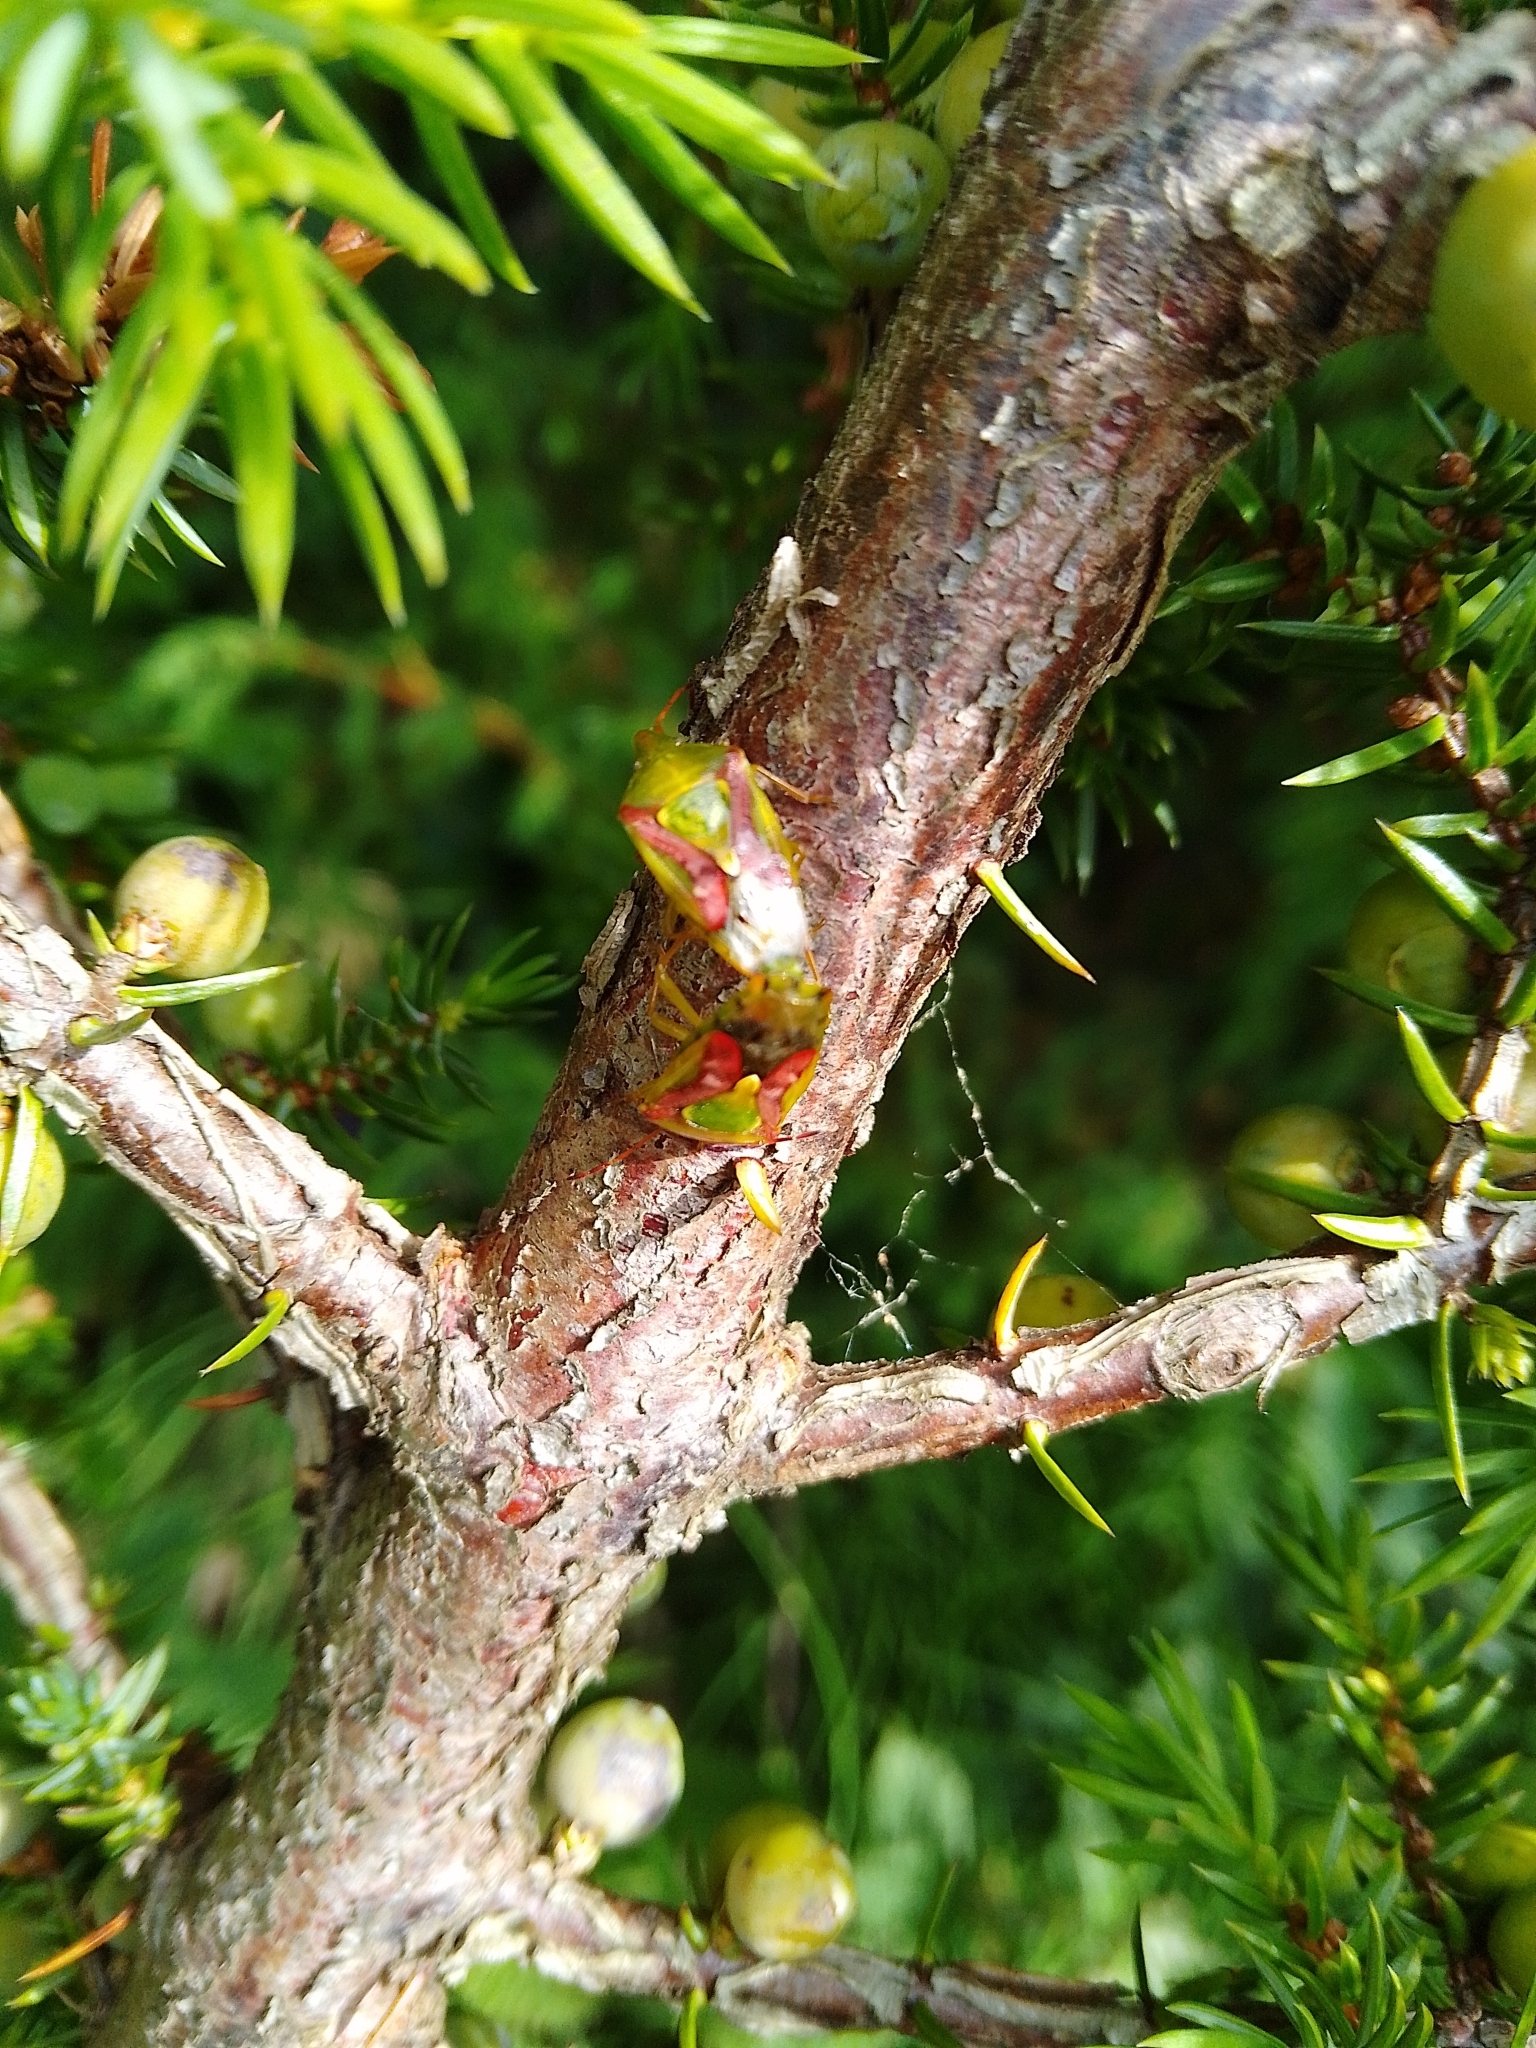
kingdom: Animalia
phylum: Arthropoda
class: Insecta
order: Hemiptera
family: Acanthosomatidae
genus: Cyphostethus
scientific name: Cyphostethus tristriatus
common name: Juniper shieldbug
